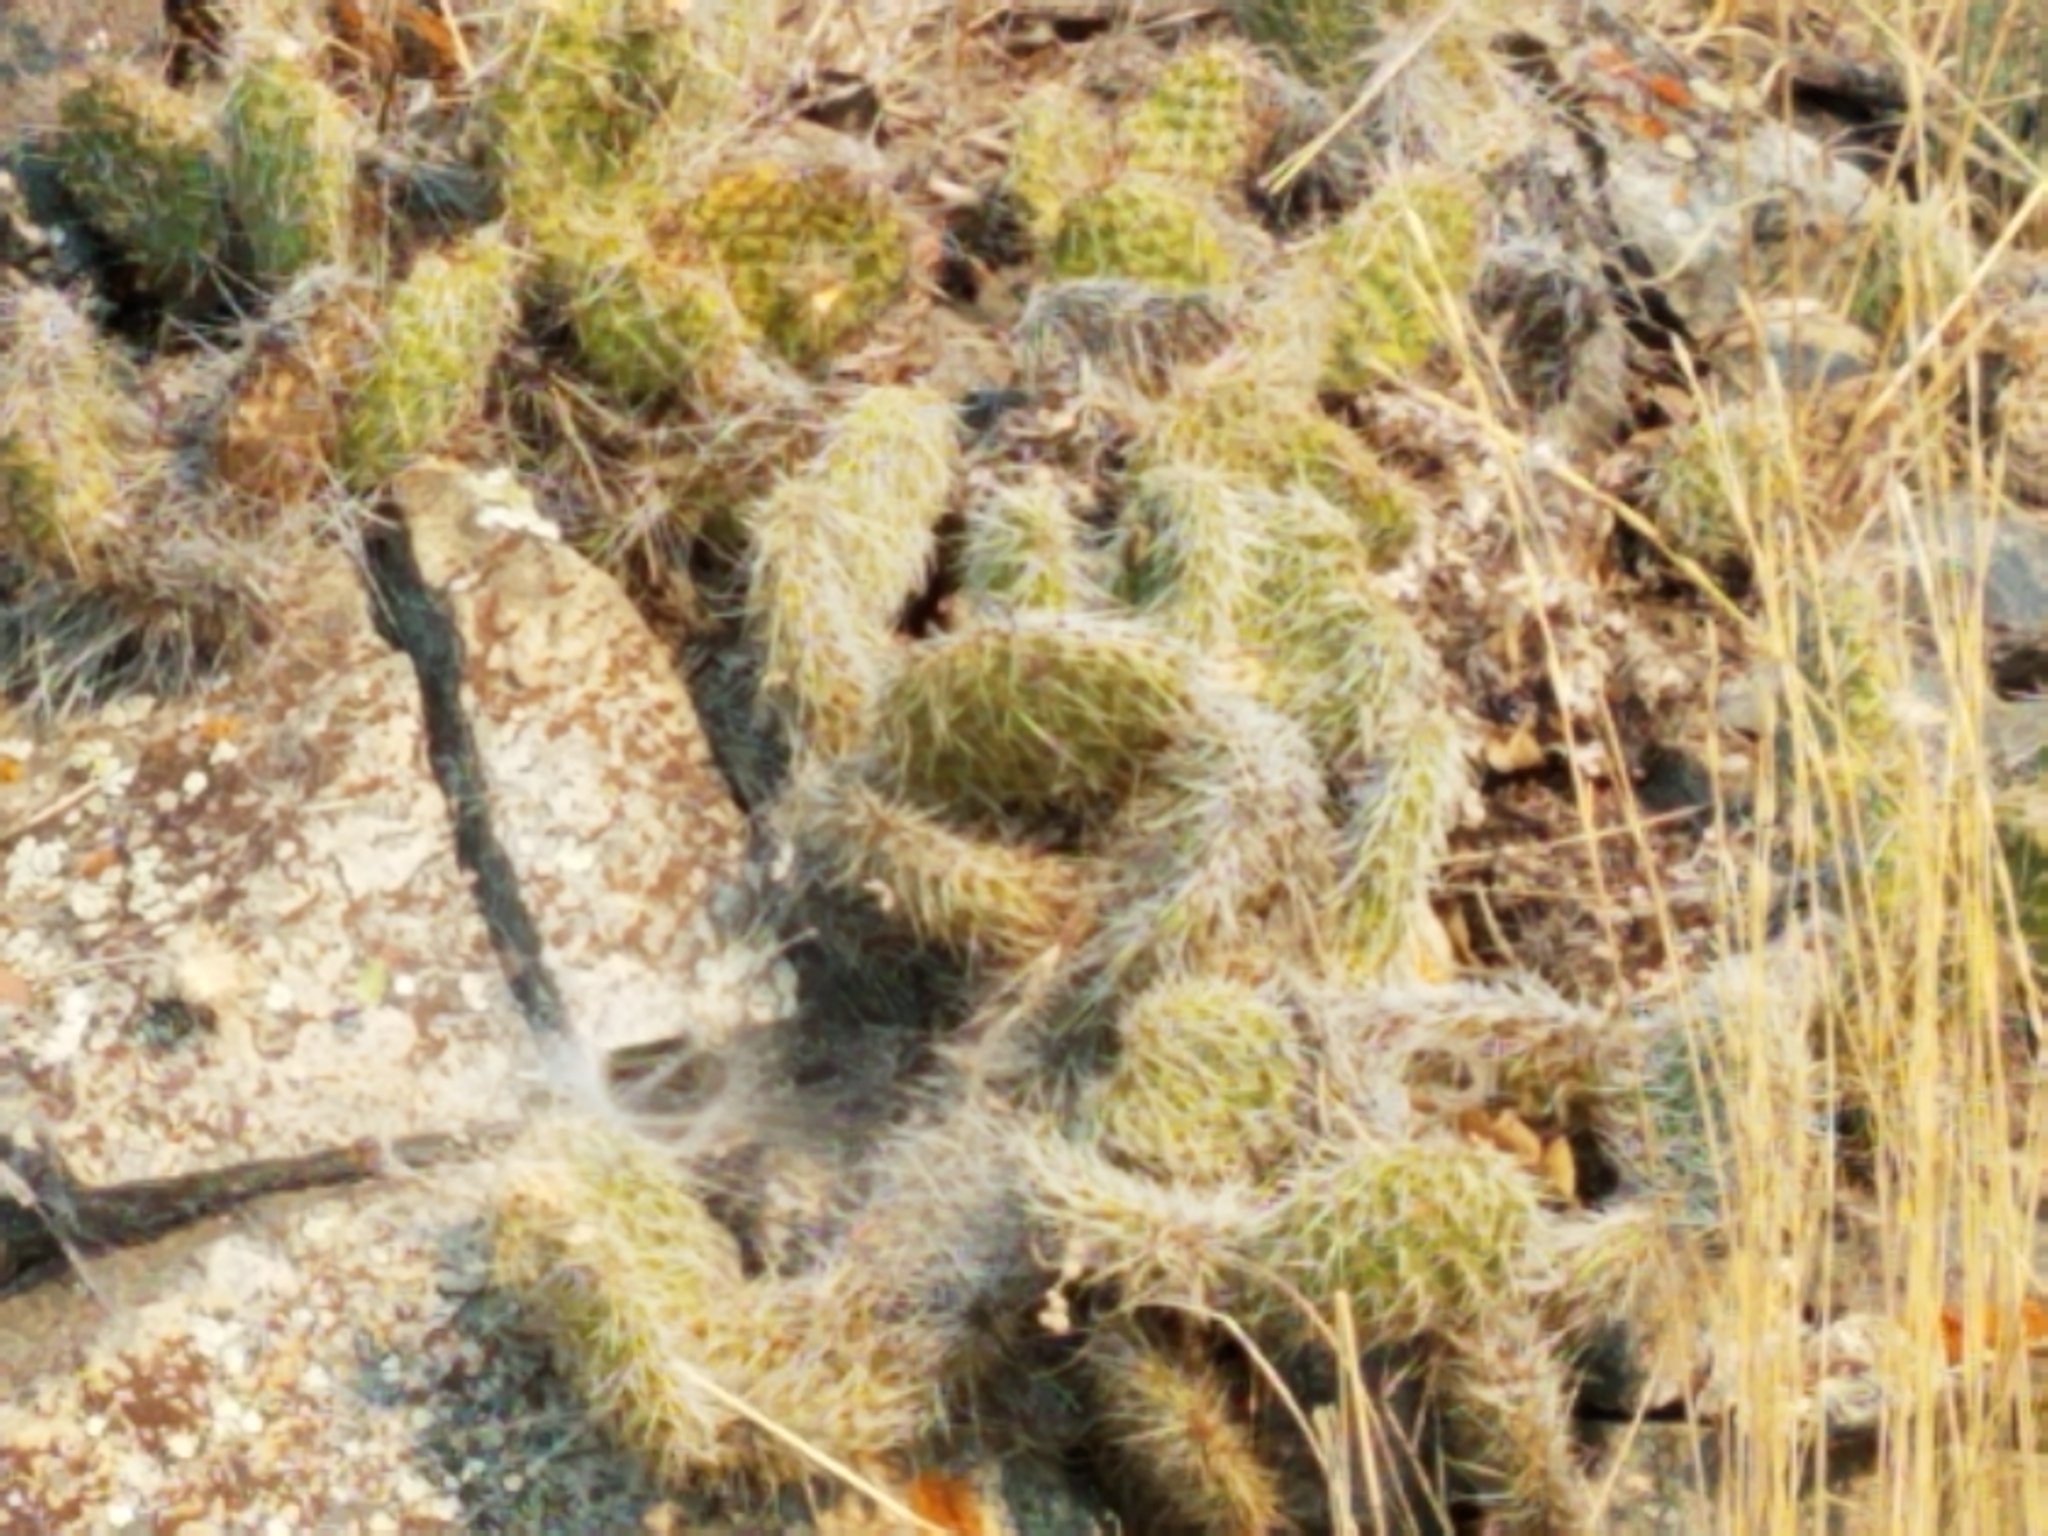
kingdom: Plantae
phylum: Tracheophyta
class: Magnoliopsida
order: Caryophyllales
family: Cactaceae
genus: Opuntia
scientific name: Opuntia polyacantha
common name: Plains prickly-pear
